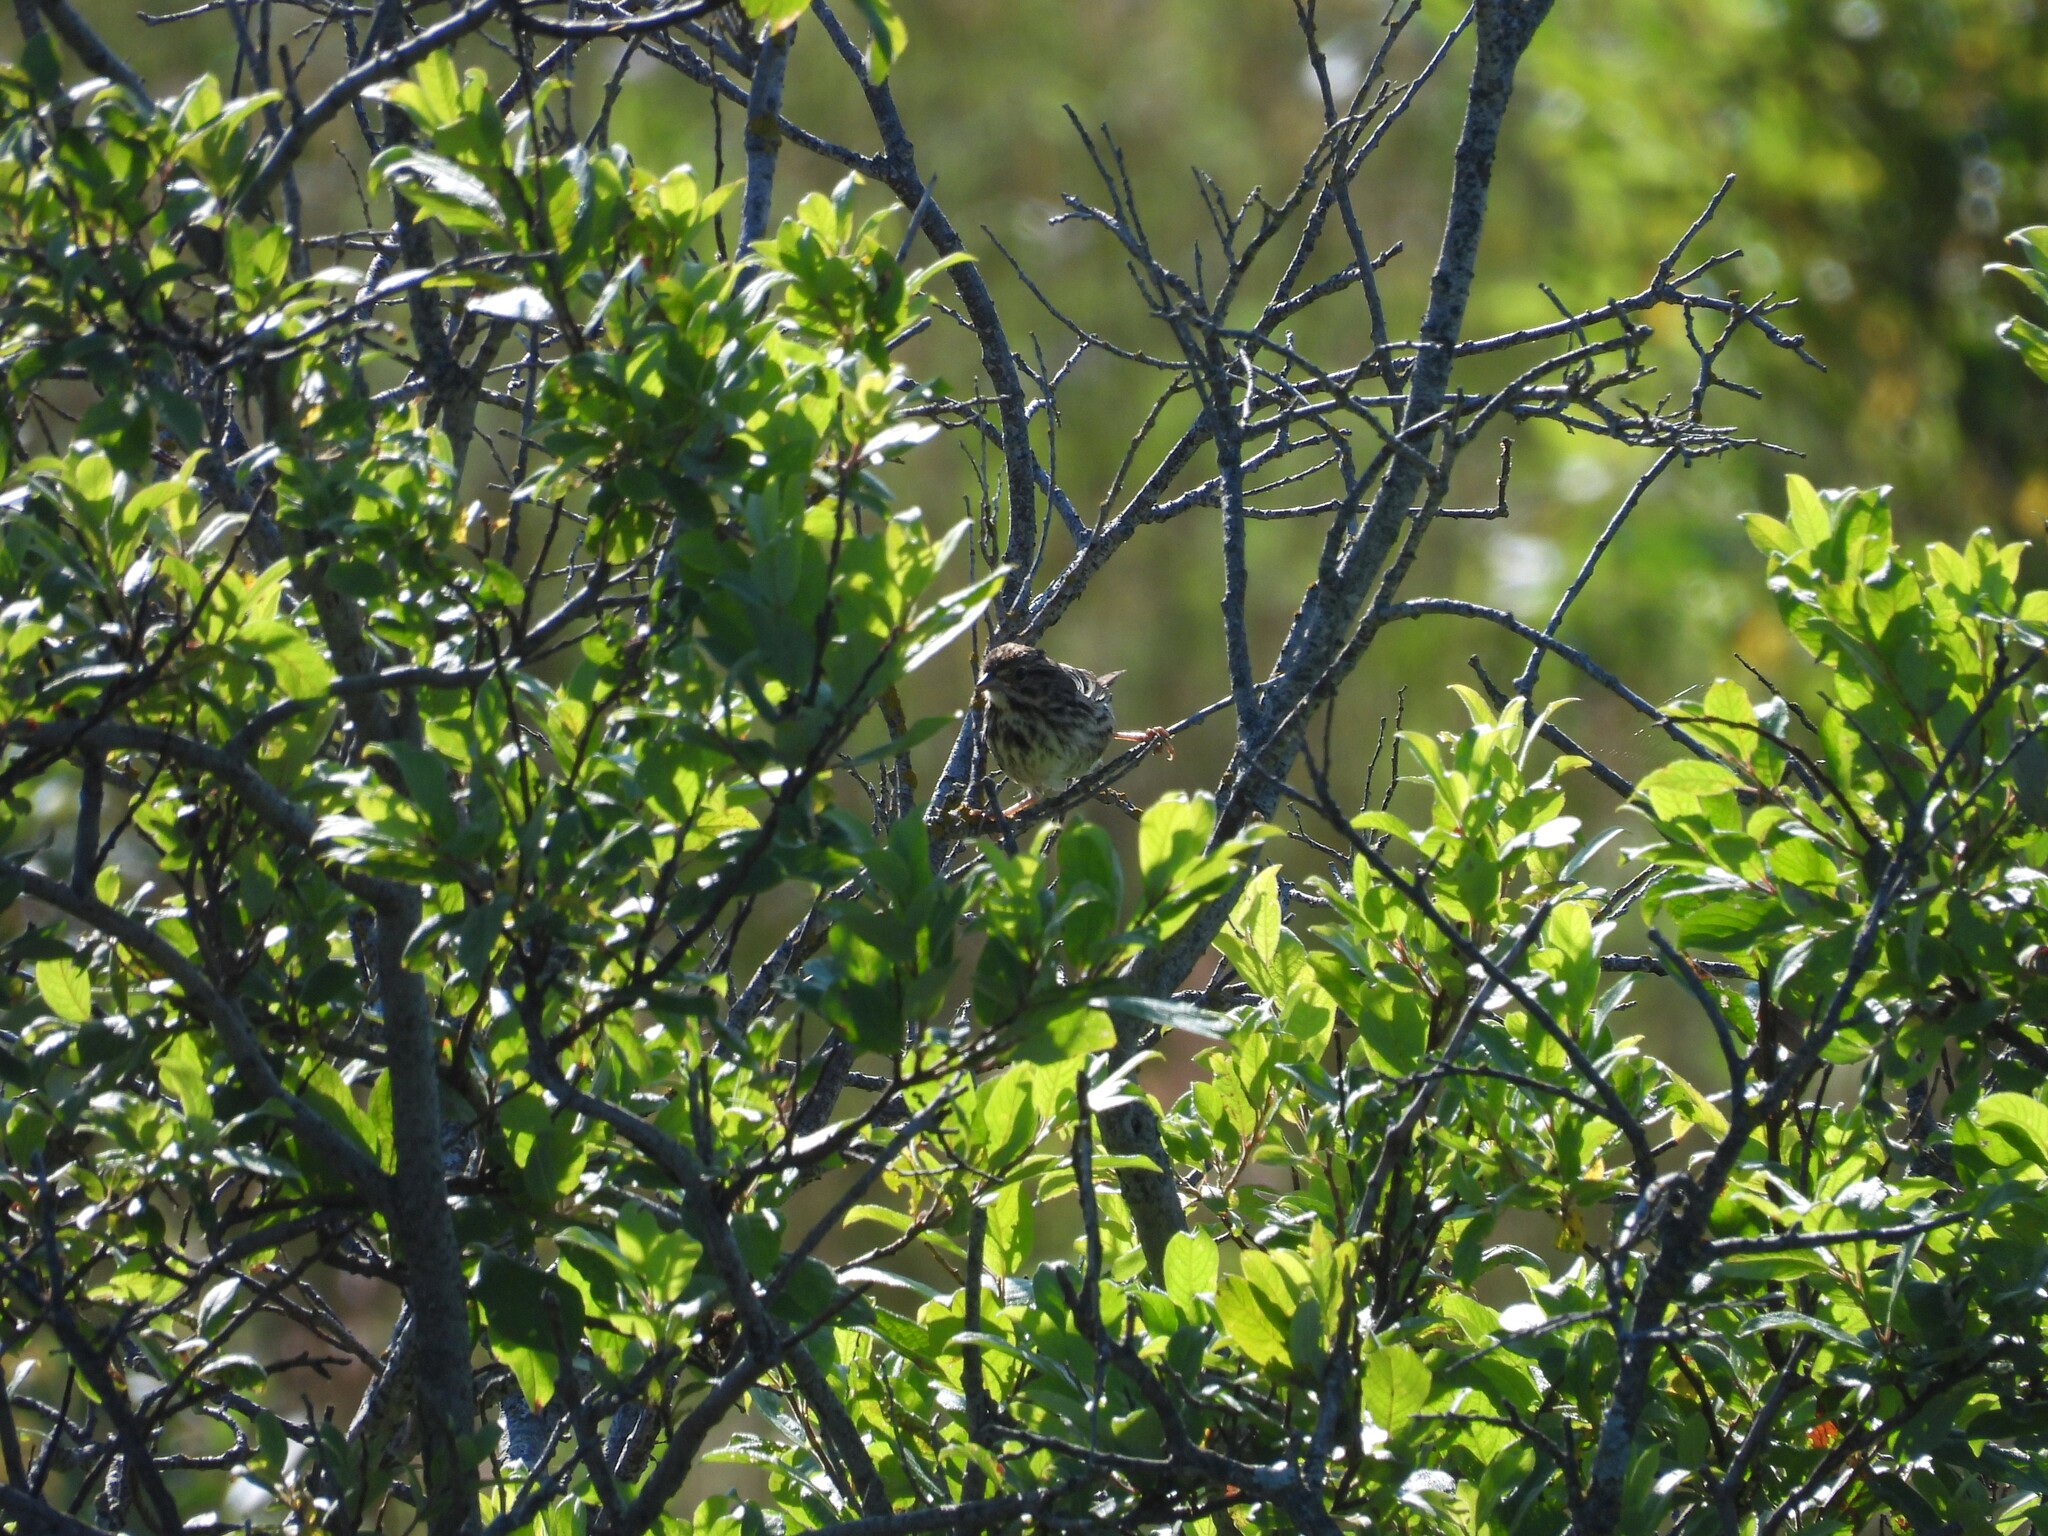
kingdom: Animalia
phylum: Chordata
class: Aves
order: Passeriformes
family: Passerellidae
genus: Melospiza
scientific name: Melospiza melodia
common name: Song sparrow
